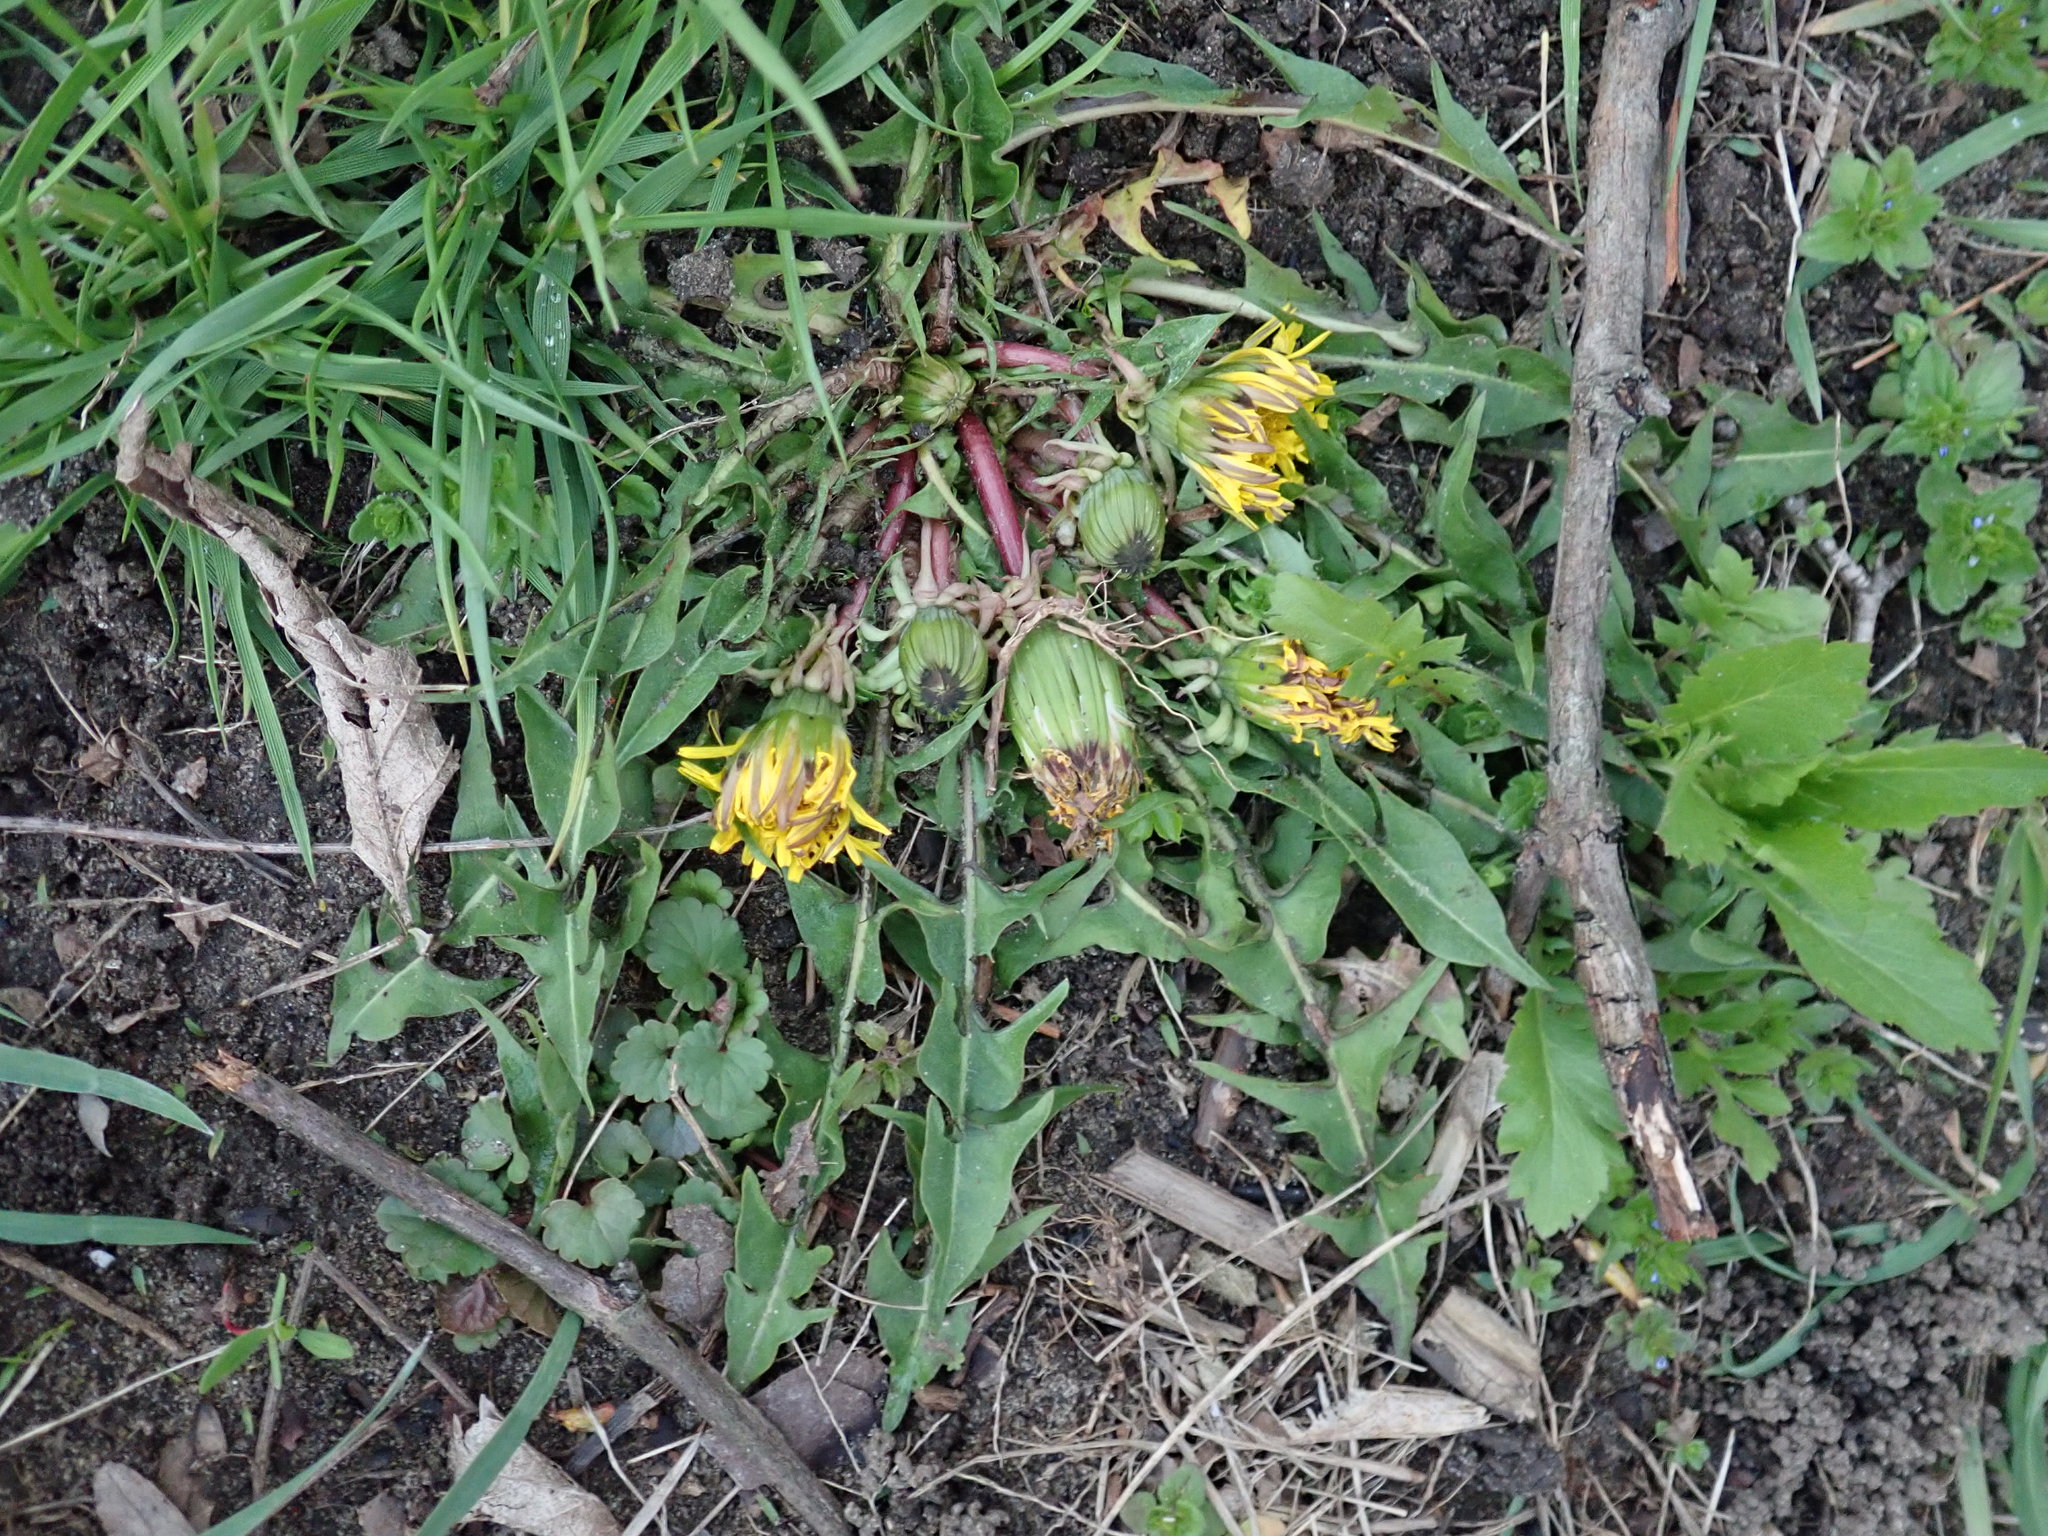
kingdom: Plantae
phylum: Tracheophyta
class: Magnoliopsida
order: Asterales
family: Asteraceae
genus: Taraxacum
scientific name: Taraxacum officinale
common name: Common dandelion
